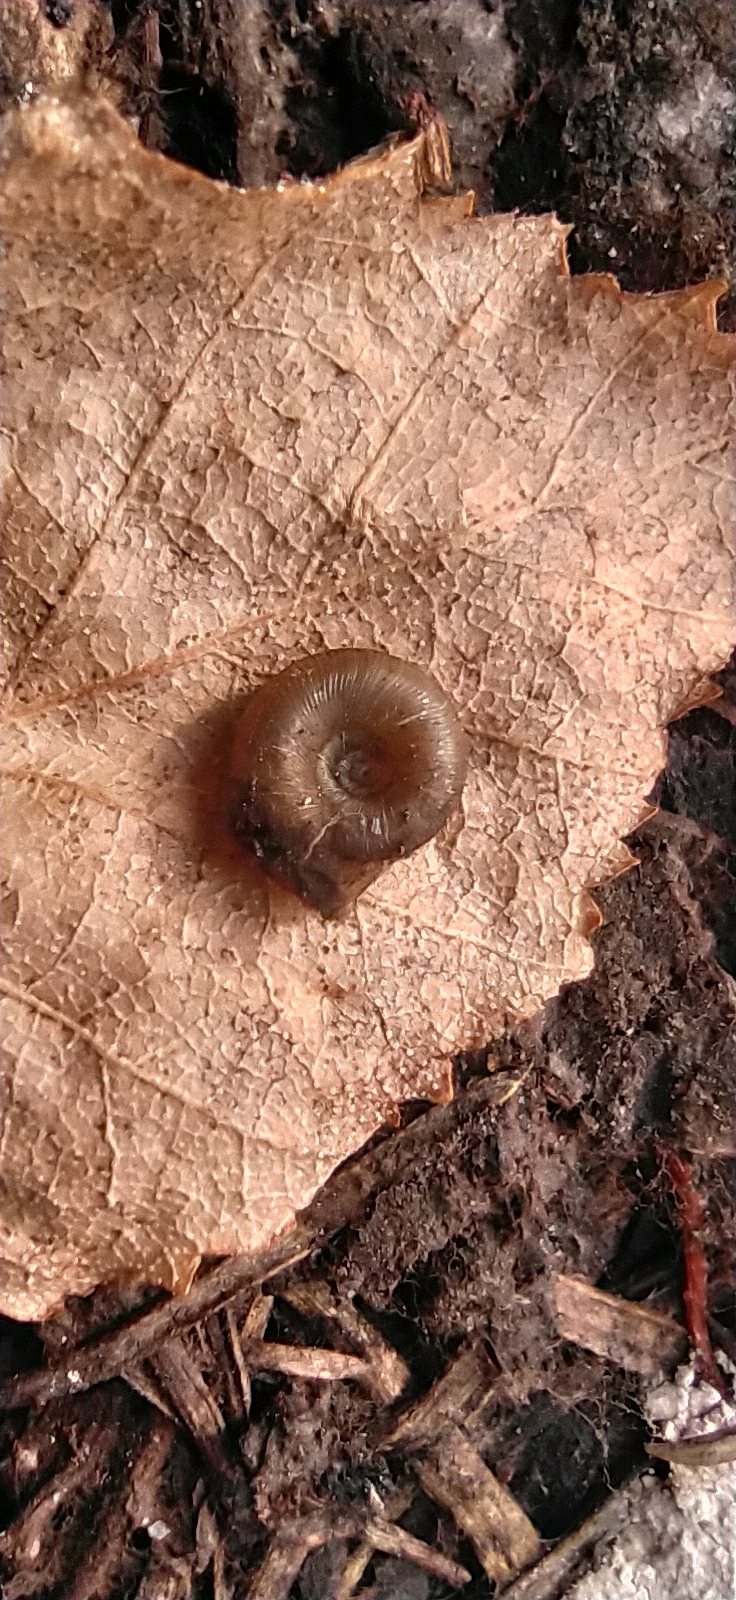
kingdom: Animalia
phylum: Mollusca
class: Gastropoda
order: Stylommatophora
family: Discidae
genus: Discus
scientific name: Discus ruderatus
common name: Brown disc snail
